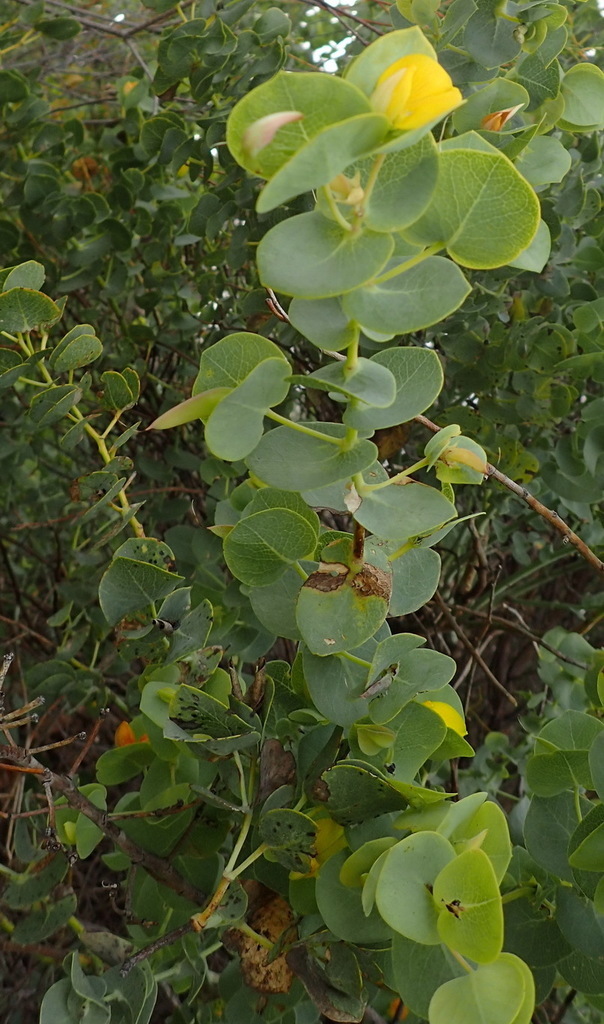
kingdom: Plantae
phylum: Tracheophyta
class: Magnoliopsida
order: Fabales
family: Fabaceae
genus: Rafnia
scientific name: Rafnia acuminata
